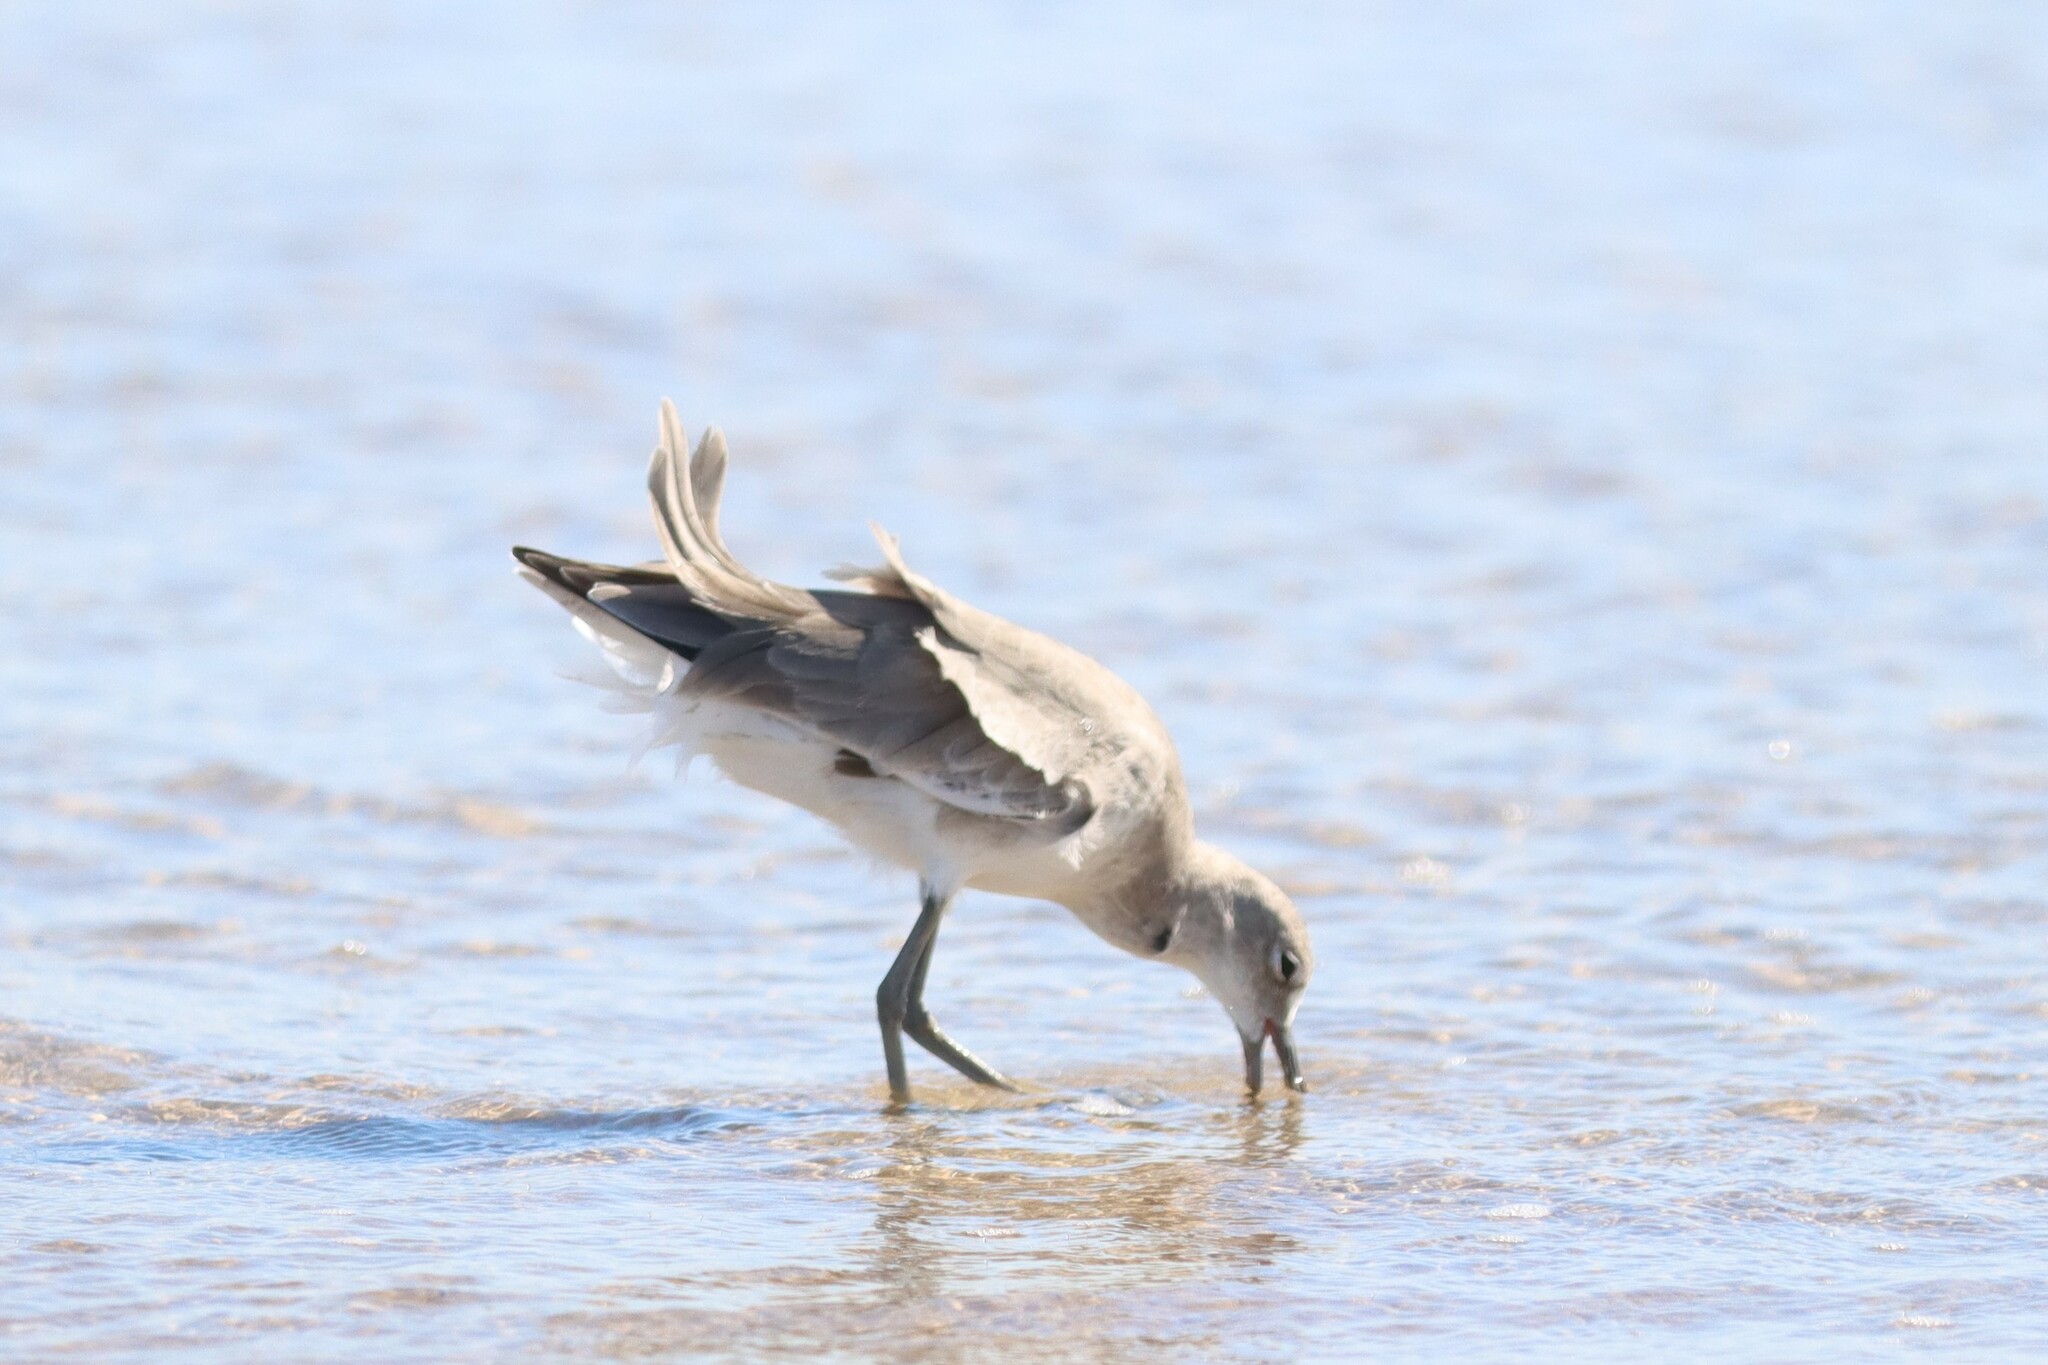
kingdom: Animalia
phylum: Chordata
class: Aves
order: Charadriiformes
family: Scolopacidae
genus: Tringa
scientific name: Tringa semipalmata
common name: Willet
